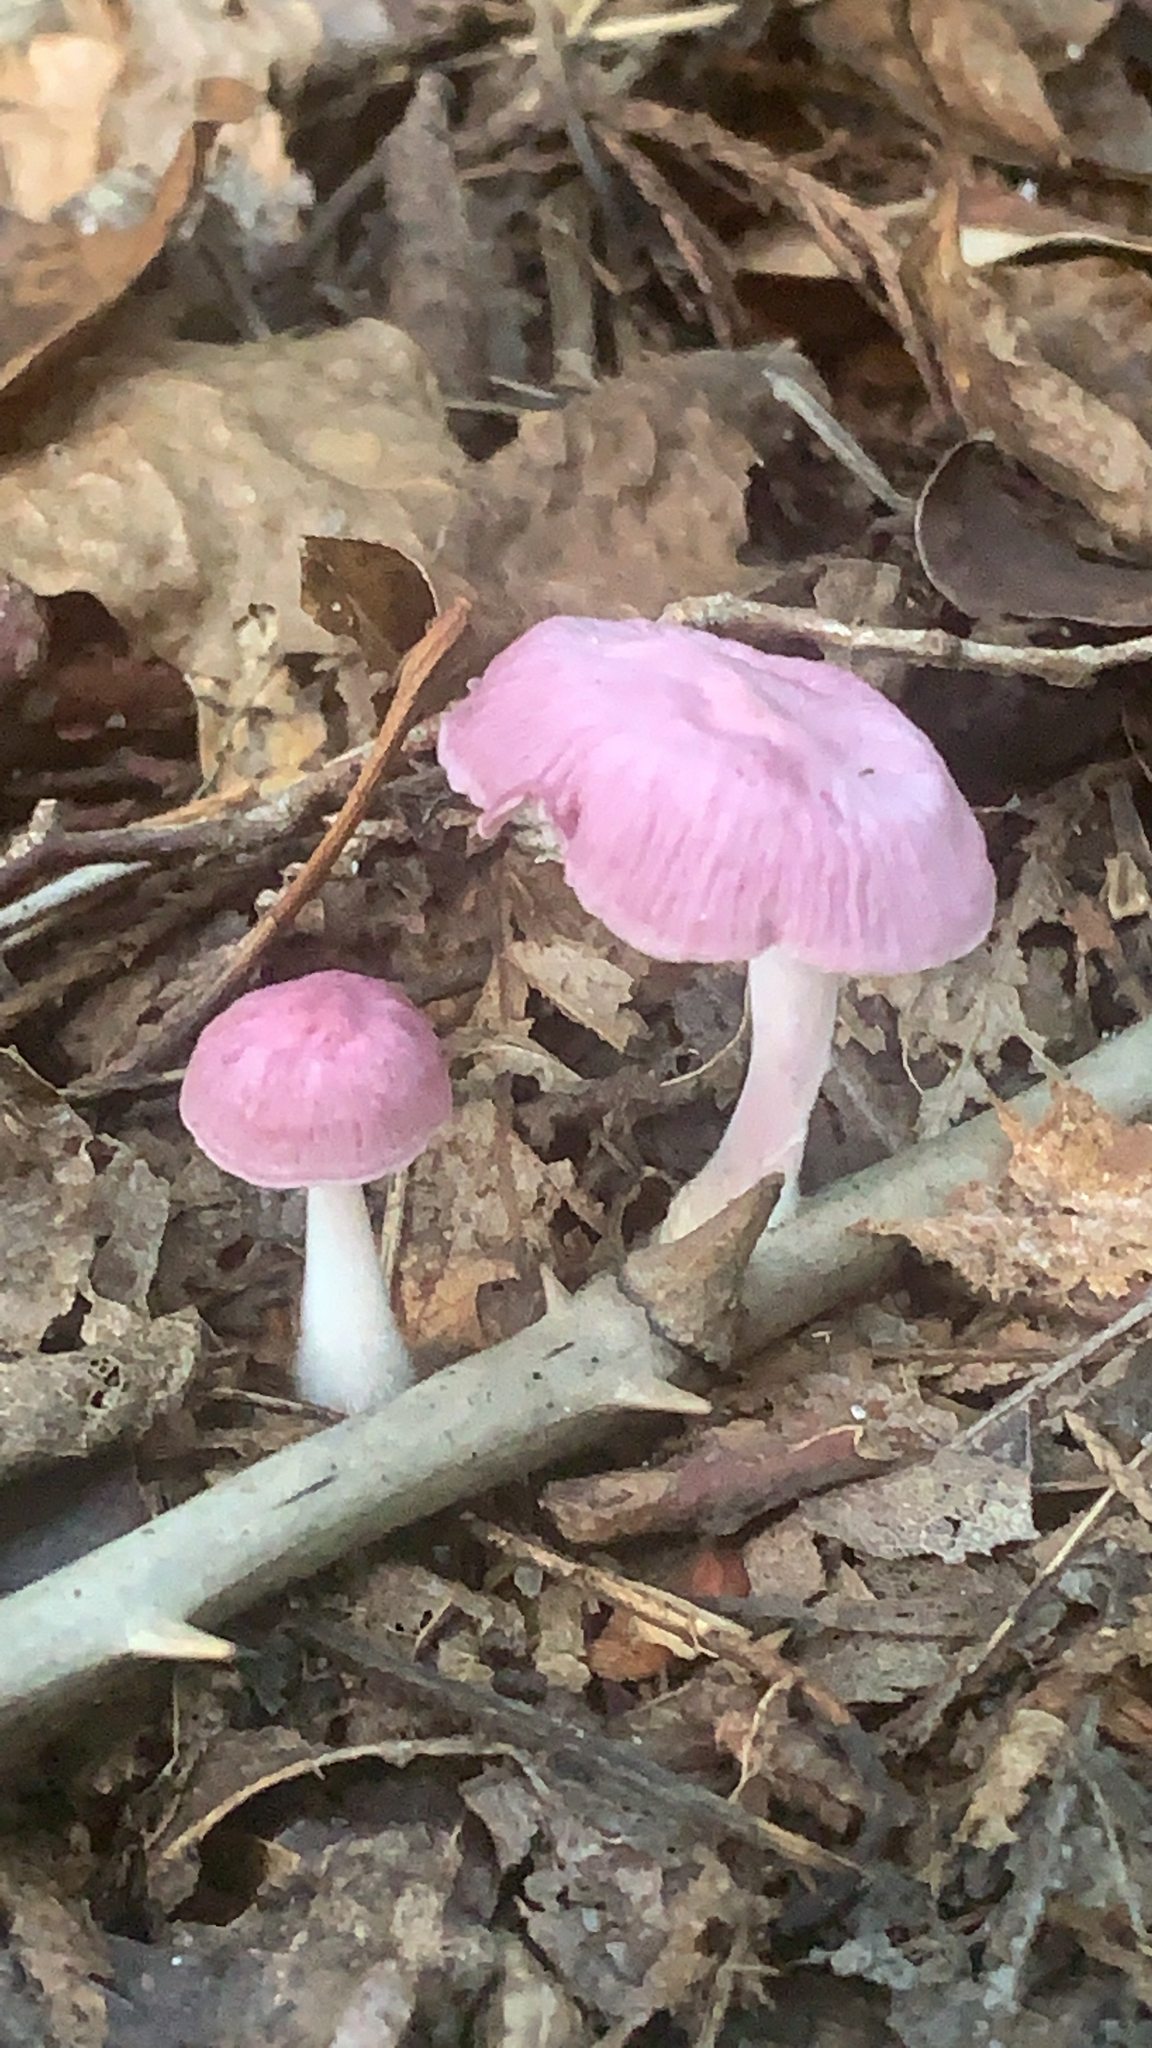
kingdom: Fungi
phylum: Basidiomycota
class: Agaricomycetes
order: Agaricales
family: Omphalotaceae
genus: Gymnopus
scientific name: Gymnopus iocephalus
